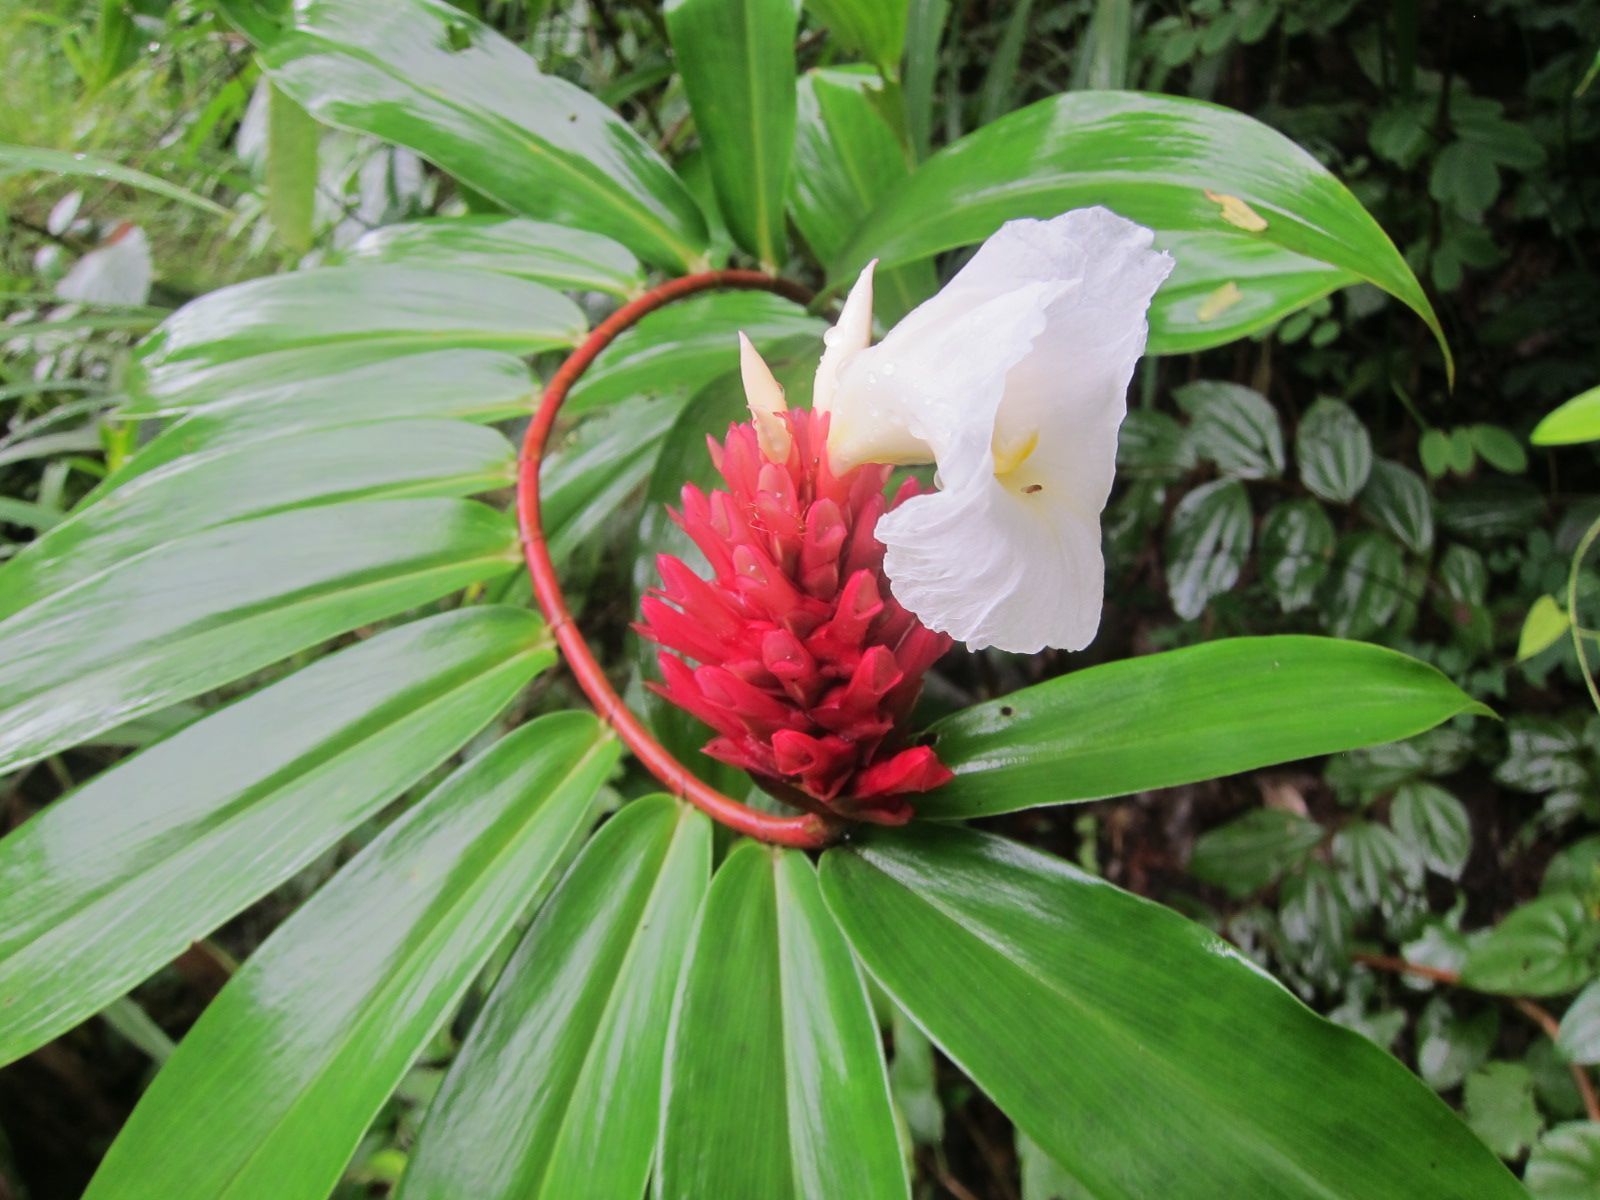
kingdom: Plantae
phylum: Tracheophyta
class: Liliopsida
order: Zingiberales
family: Costaceae
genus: Hellenia
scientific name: Hellenia speciosa
